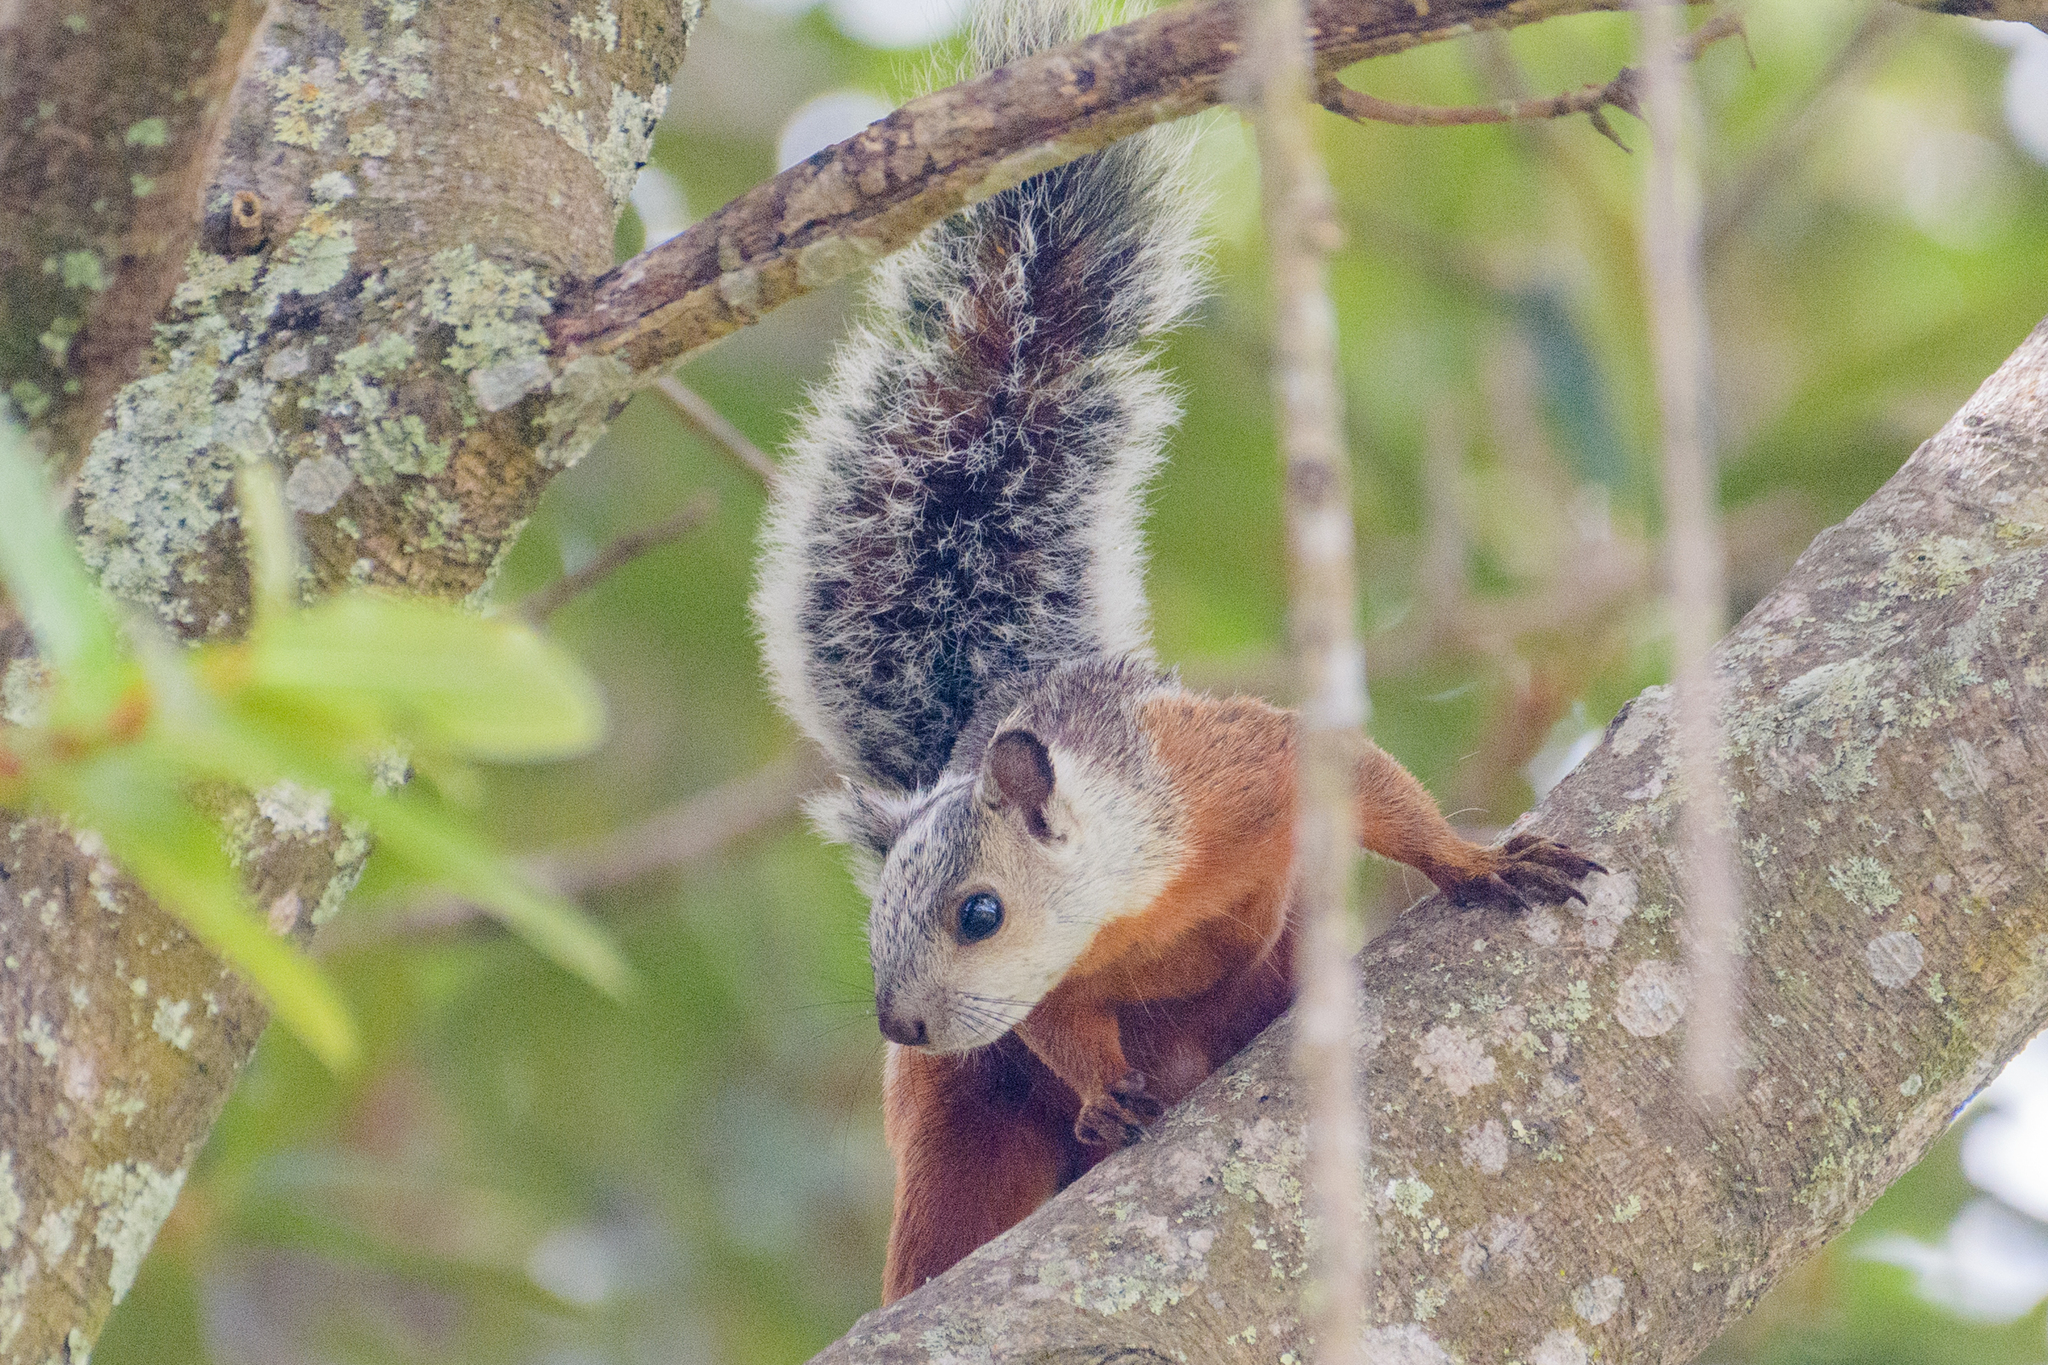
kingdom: Animalia
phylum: Chordata
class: Mammalia
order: Rodentia
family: Sciuridae
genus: Sciurus
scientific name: Sciurus variegatoides
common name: Variegated squirrel
